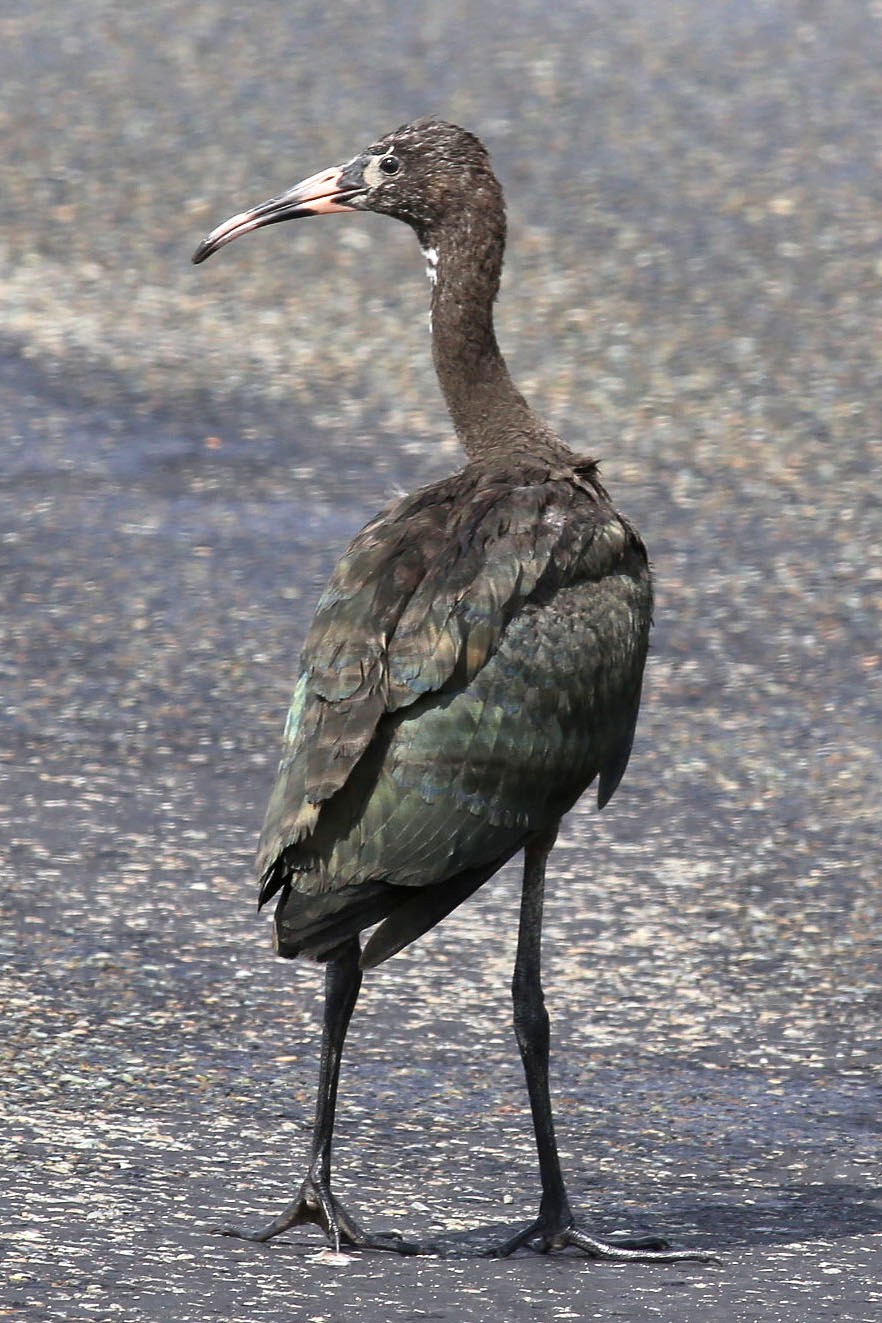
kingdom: Animalia
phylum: Chordata
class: Aves
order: Pelecaniformes
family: Threskiornithidae
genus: Plegadis
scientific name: Plegadis falcinellus
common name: Glossy ibis
